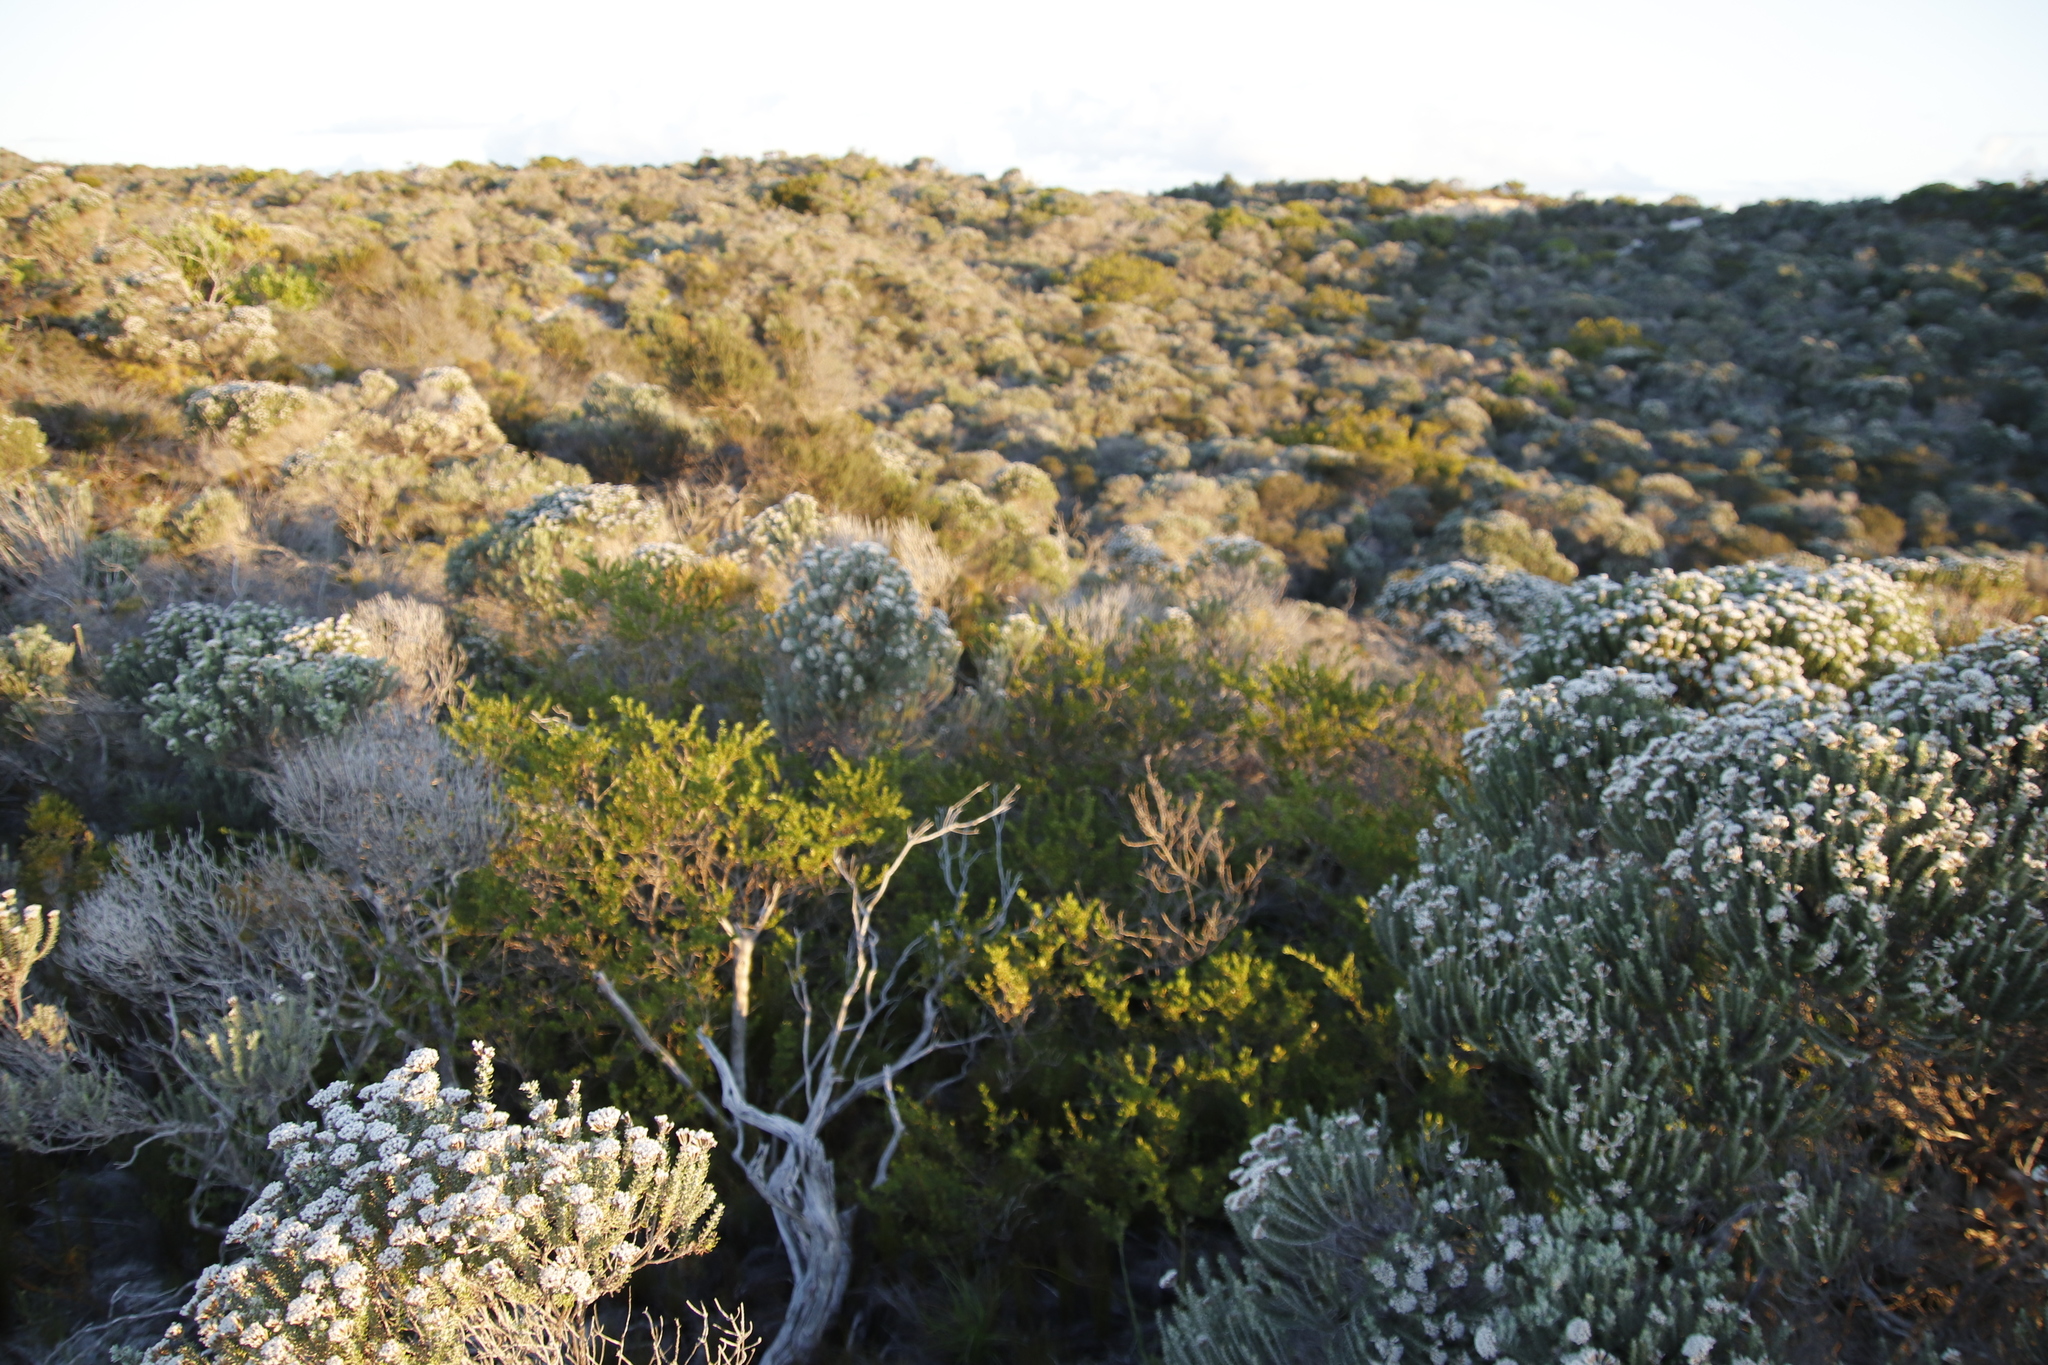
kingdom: Plantae
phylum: Tracheophyta
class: Magnoliopsida
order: Fabales
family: Fabaceae
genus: Psoralea
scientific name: Psoralea bracteolata
